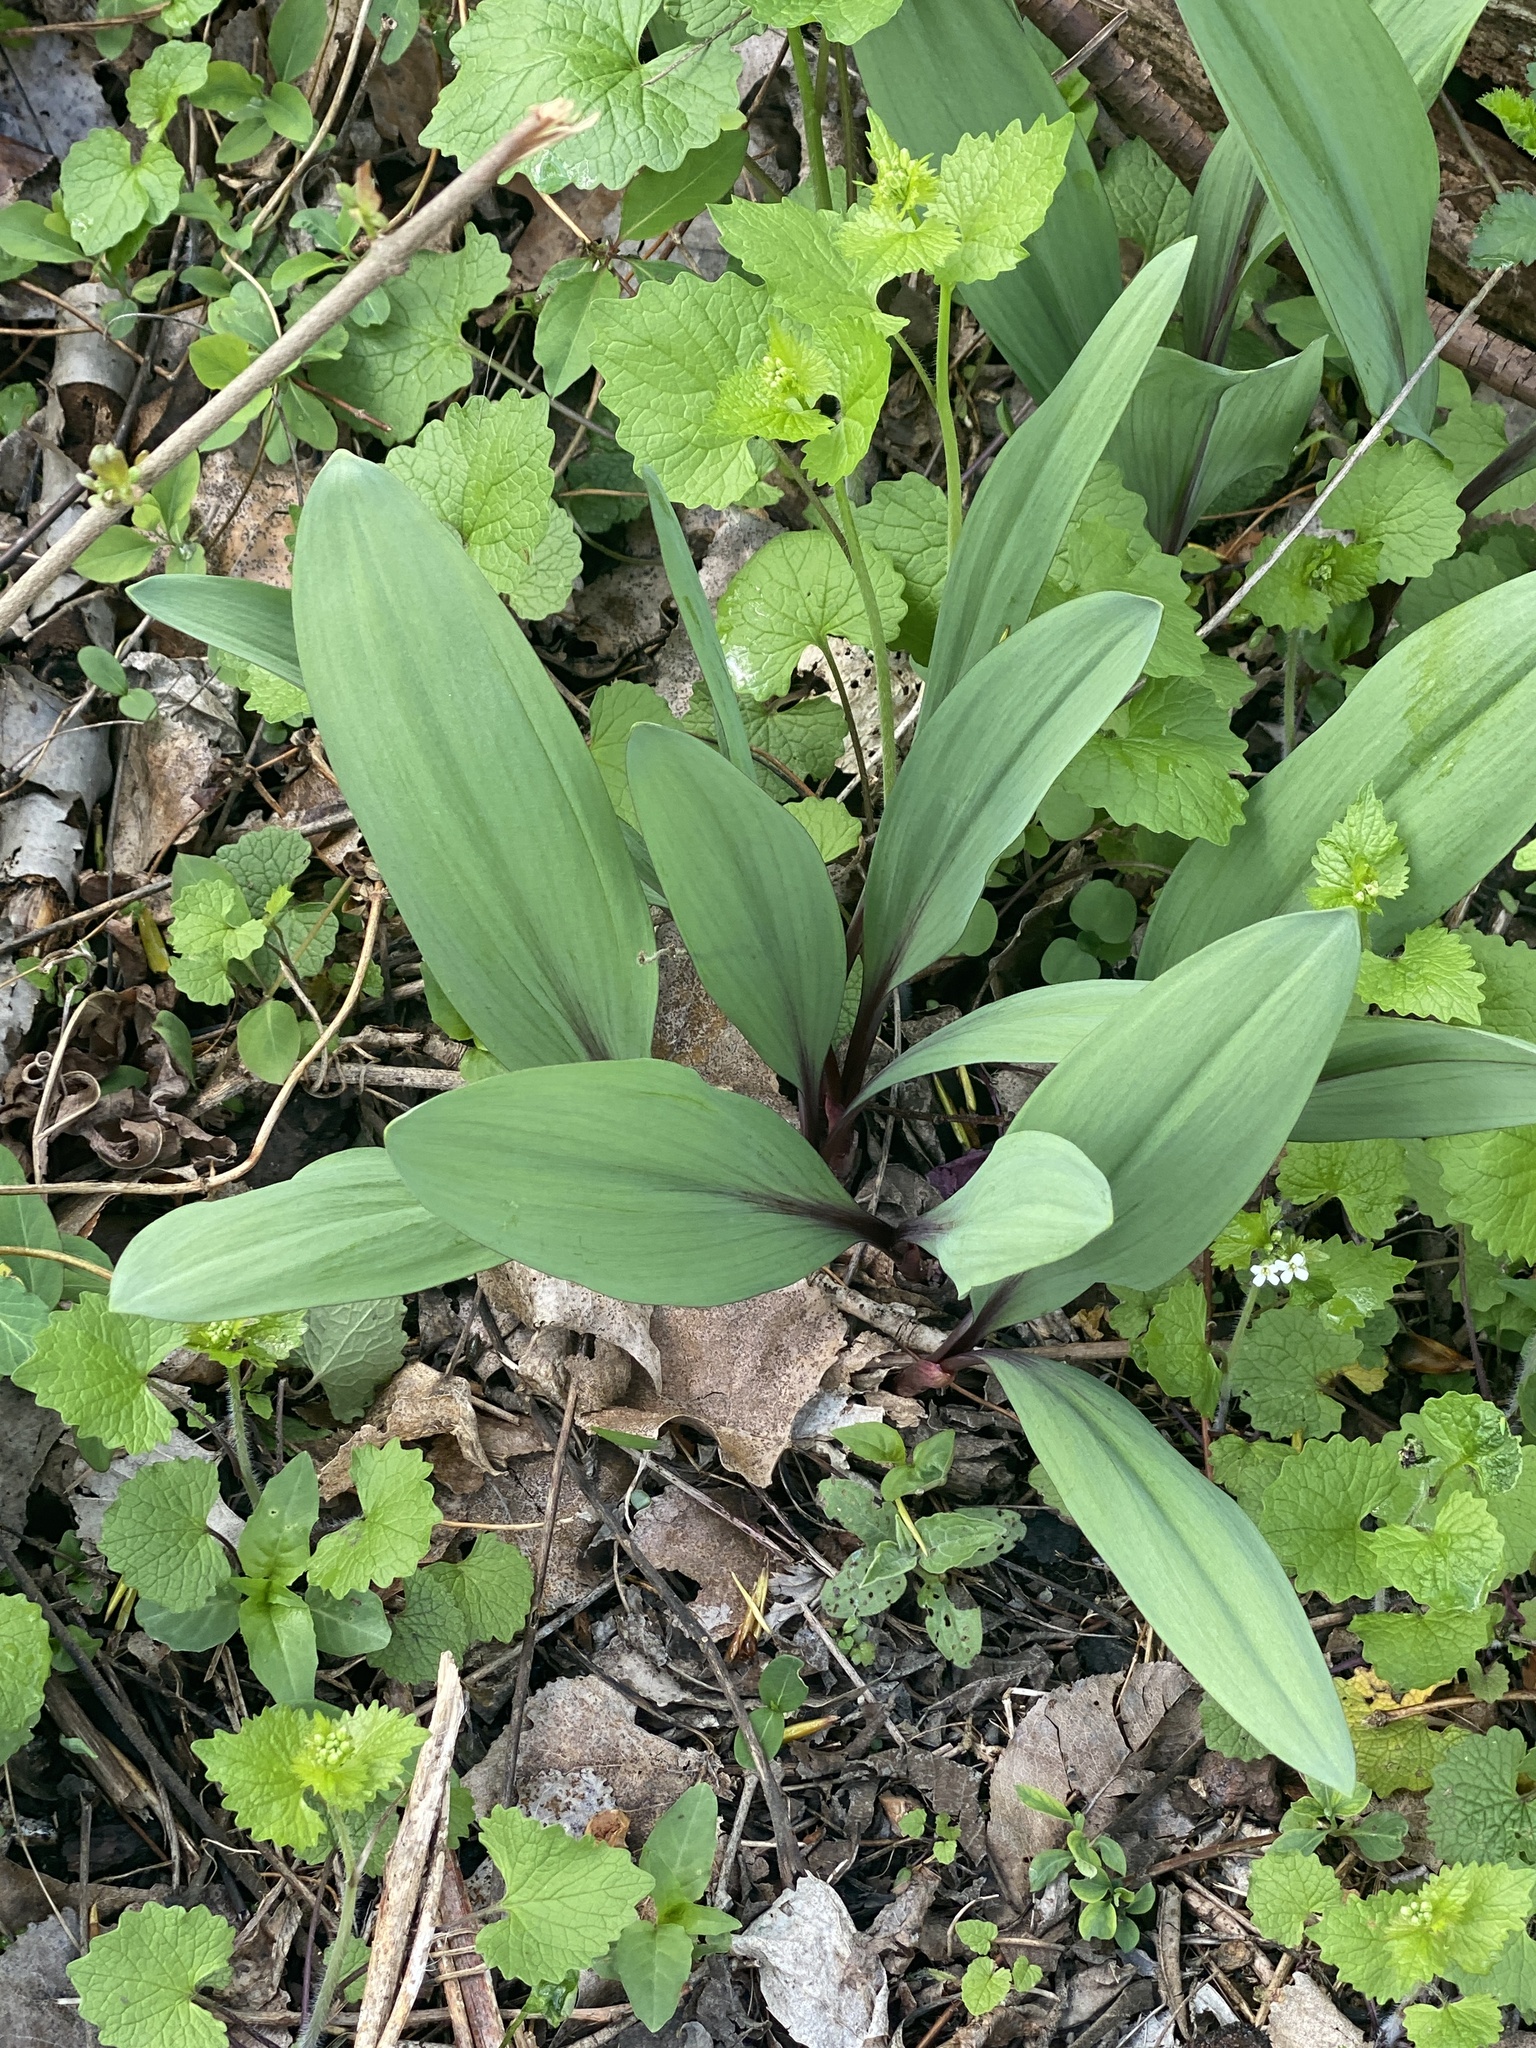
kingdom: Plantae
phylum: Tracheophyta
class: Liliopsida
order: Asparagales
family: Amaryllidaceae
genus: Allium
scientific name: Allium tricoccum
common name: Ramp
